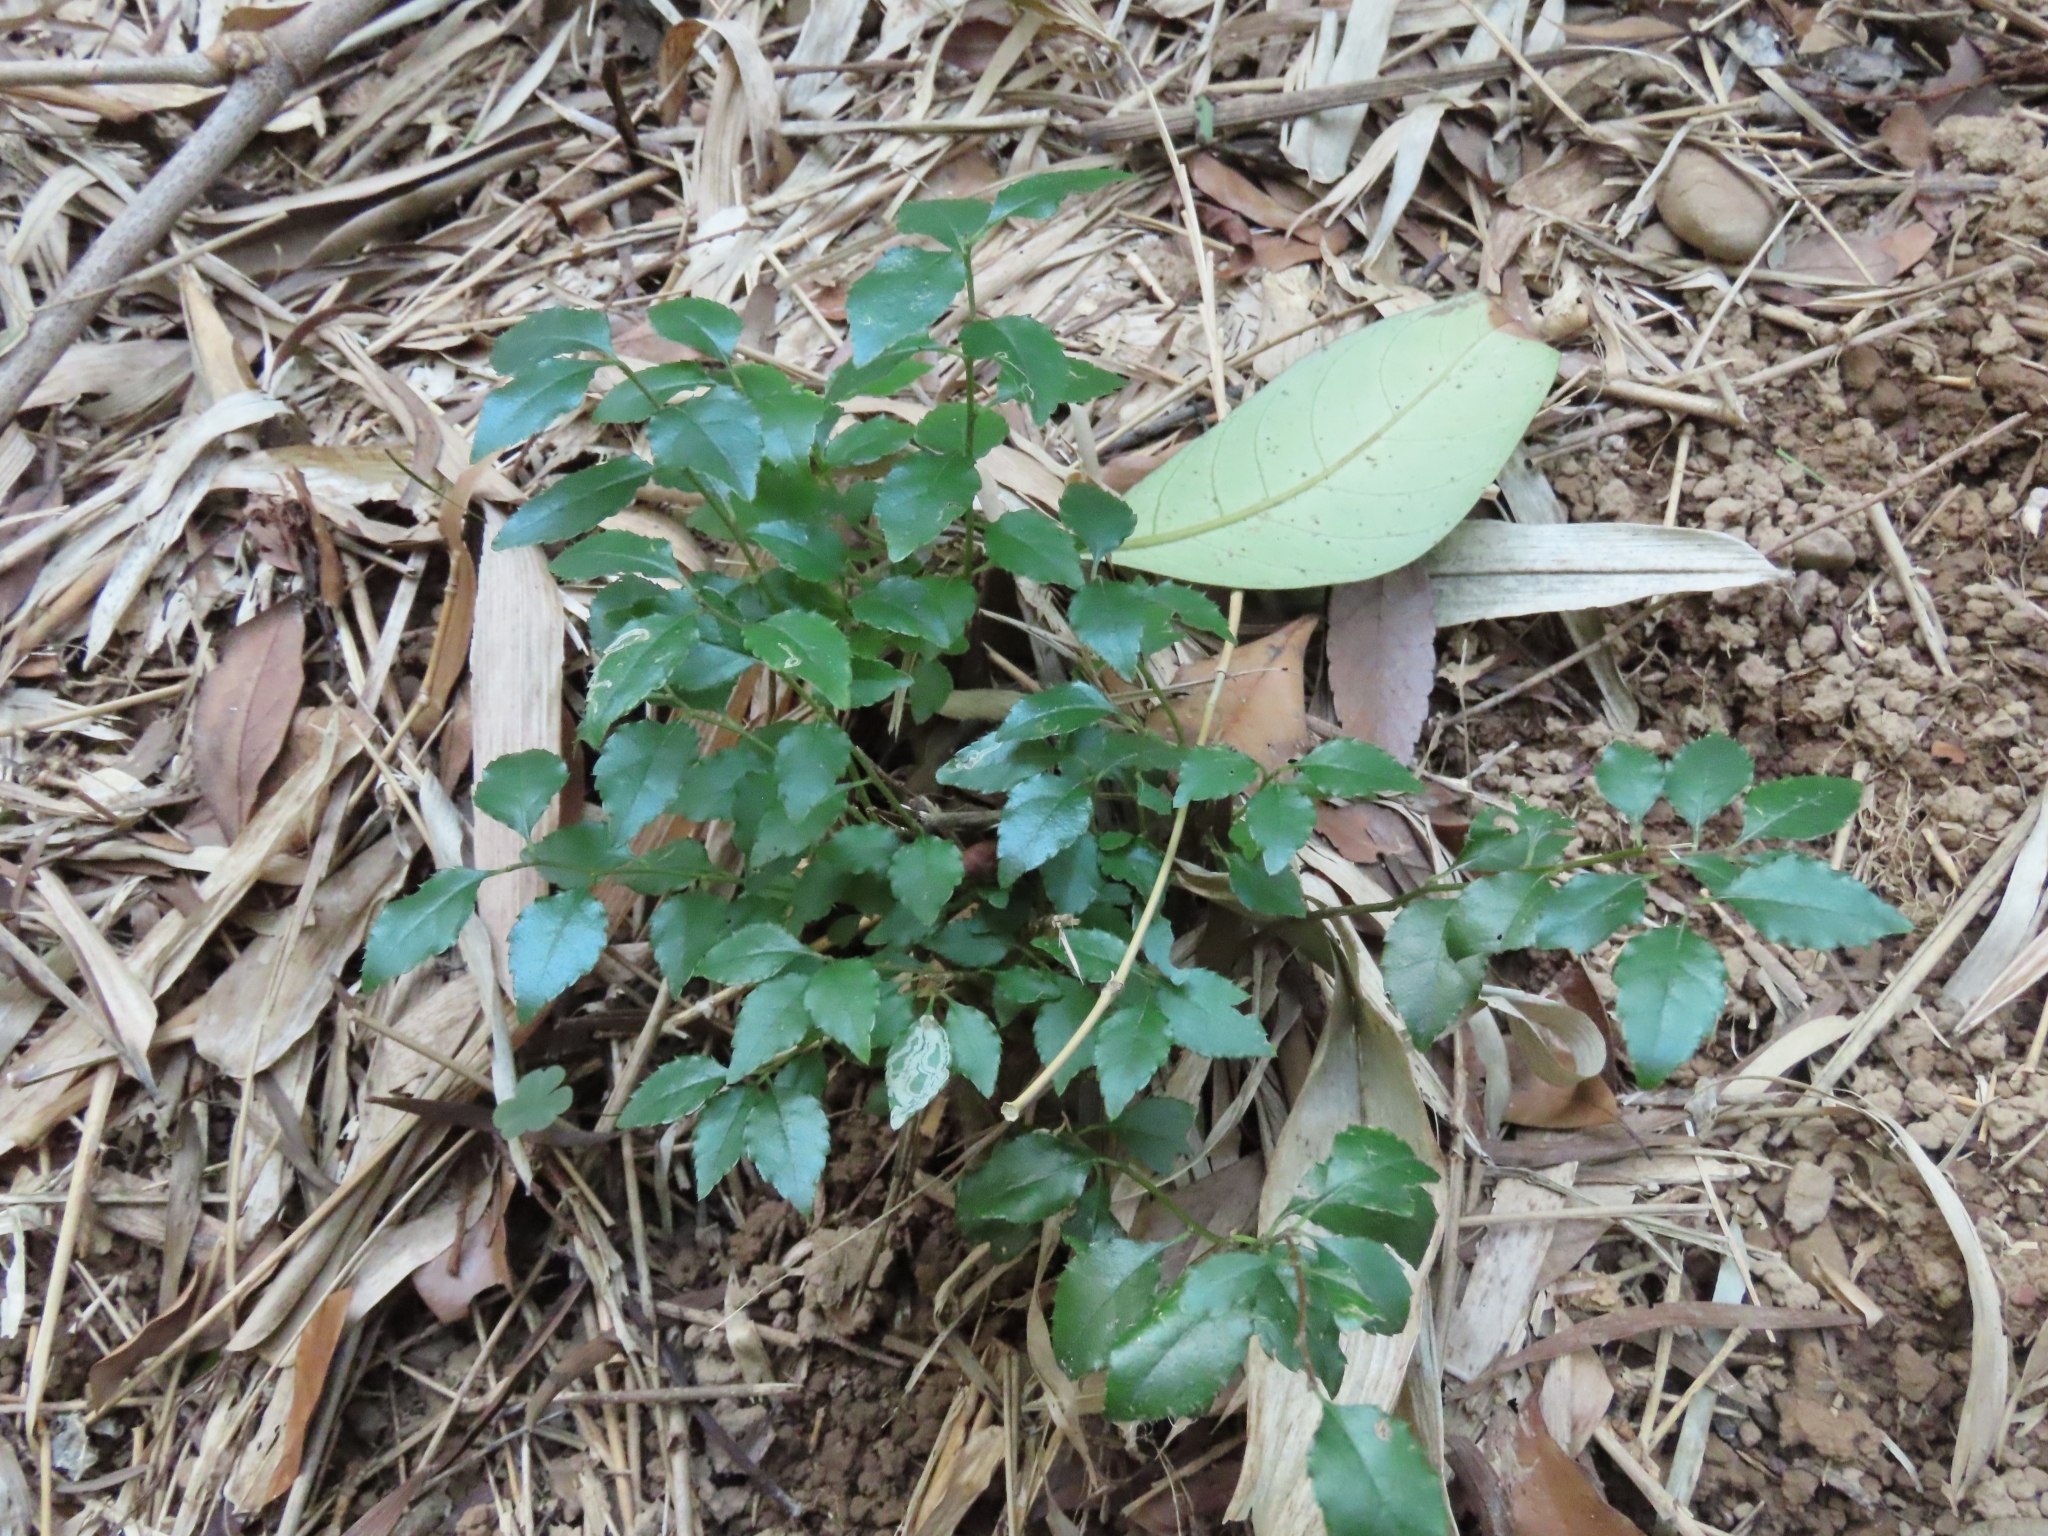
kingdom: Plantae
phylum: Tracheophyta
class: Magnoliopsida
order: Aquifoliales
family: Aquifoliaceae
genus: Ilex
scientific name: Ilex asprella
